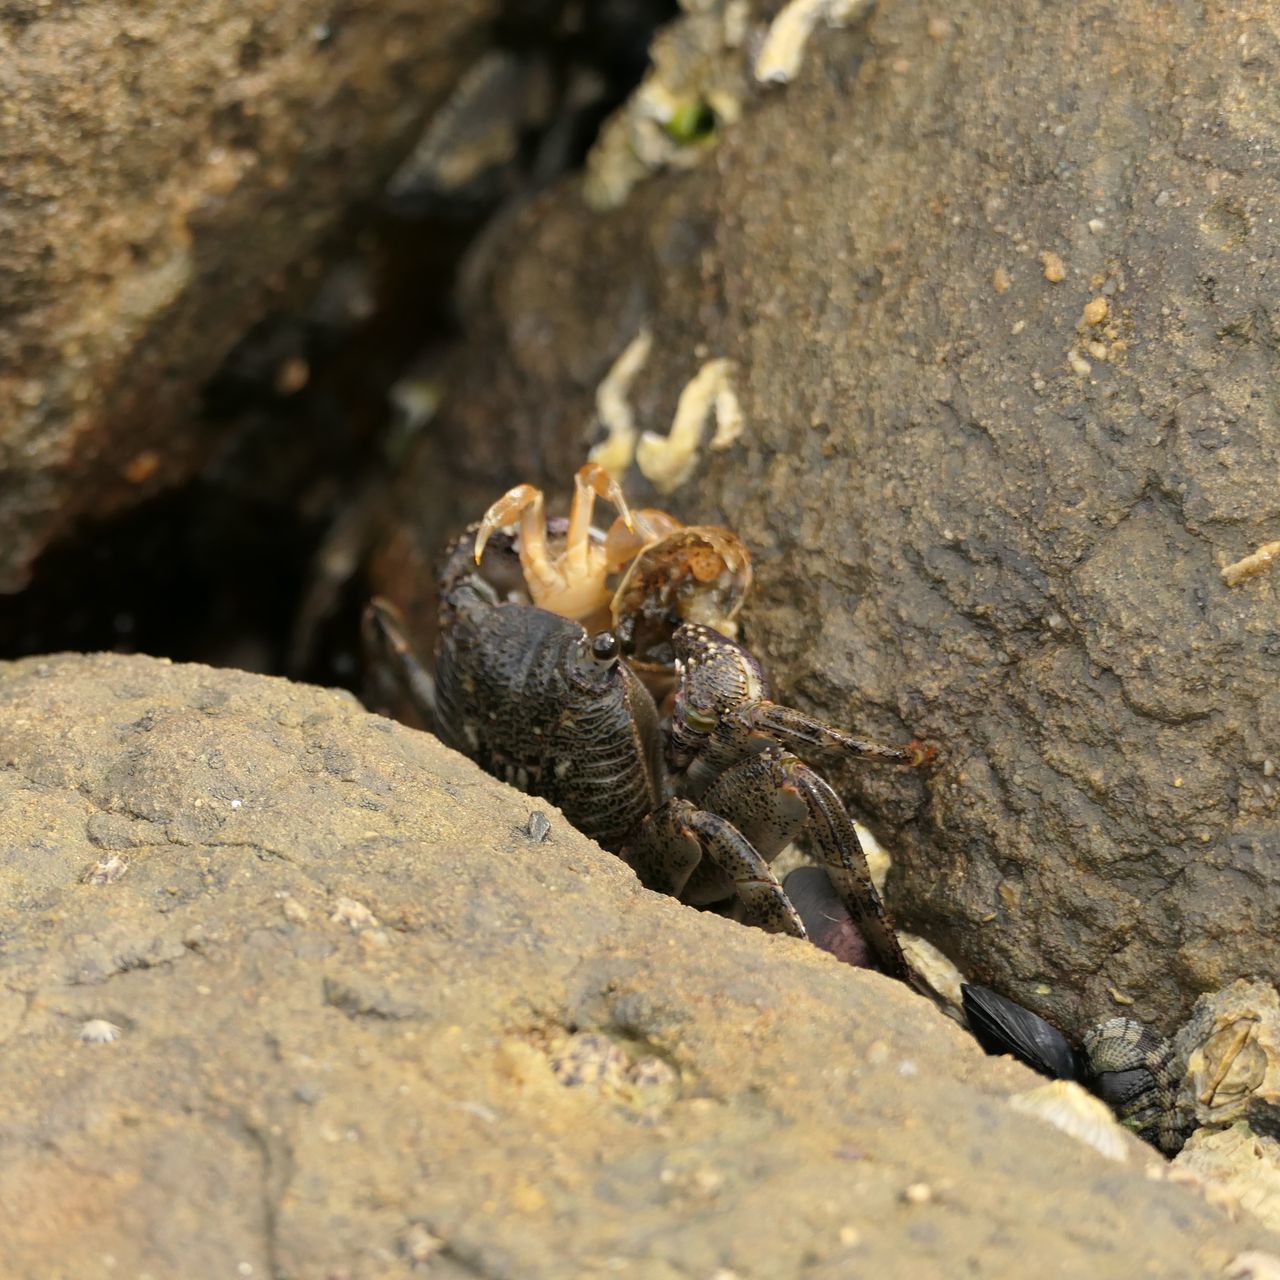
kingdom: Animalia
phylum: Arthropoda
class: Malacostraca
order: Decapoda
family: Grapsidae
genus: Leptograpsus
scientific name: Leptograpsus variegatus
